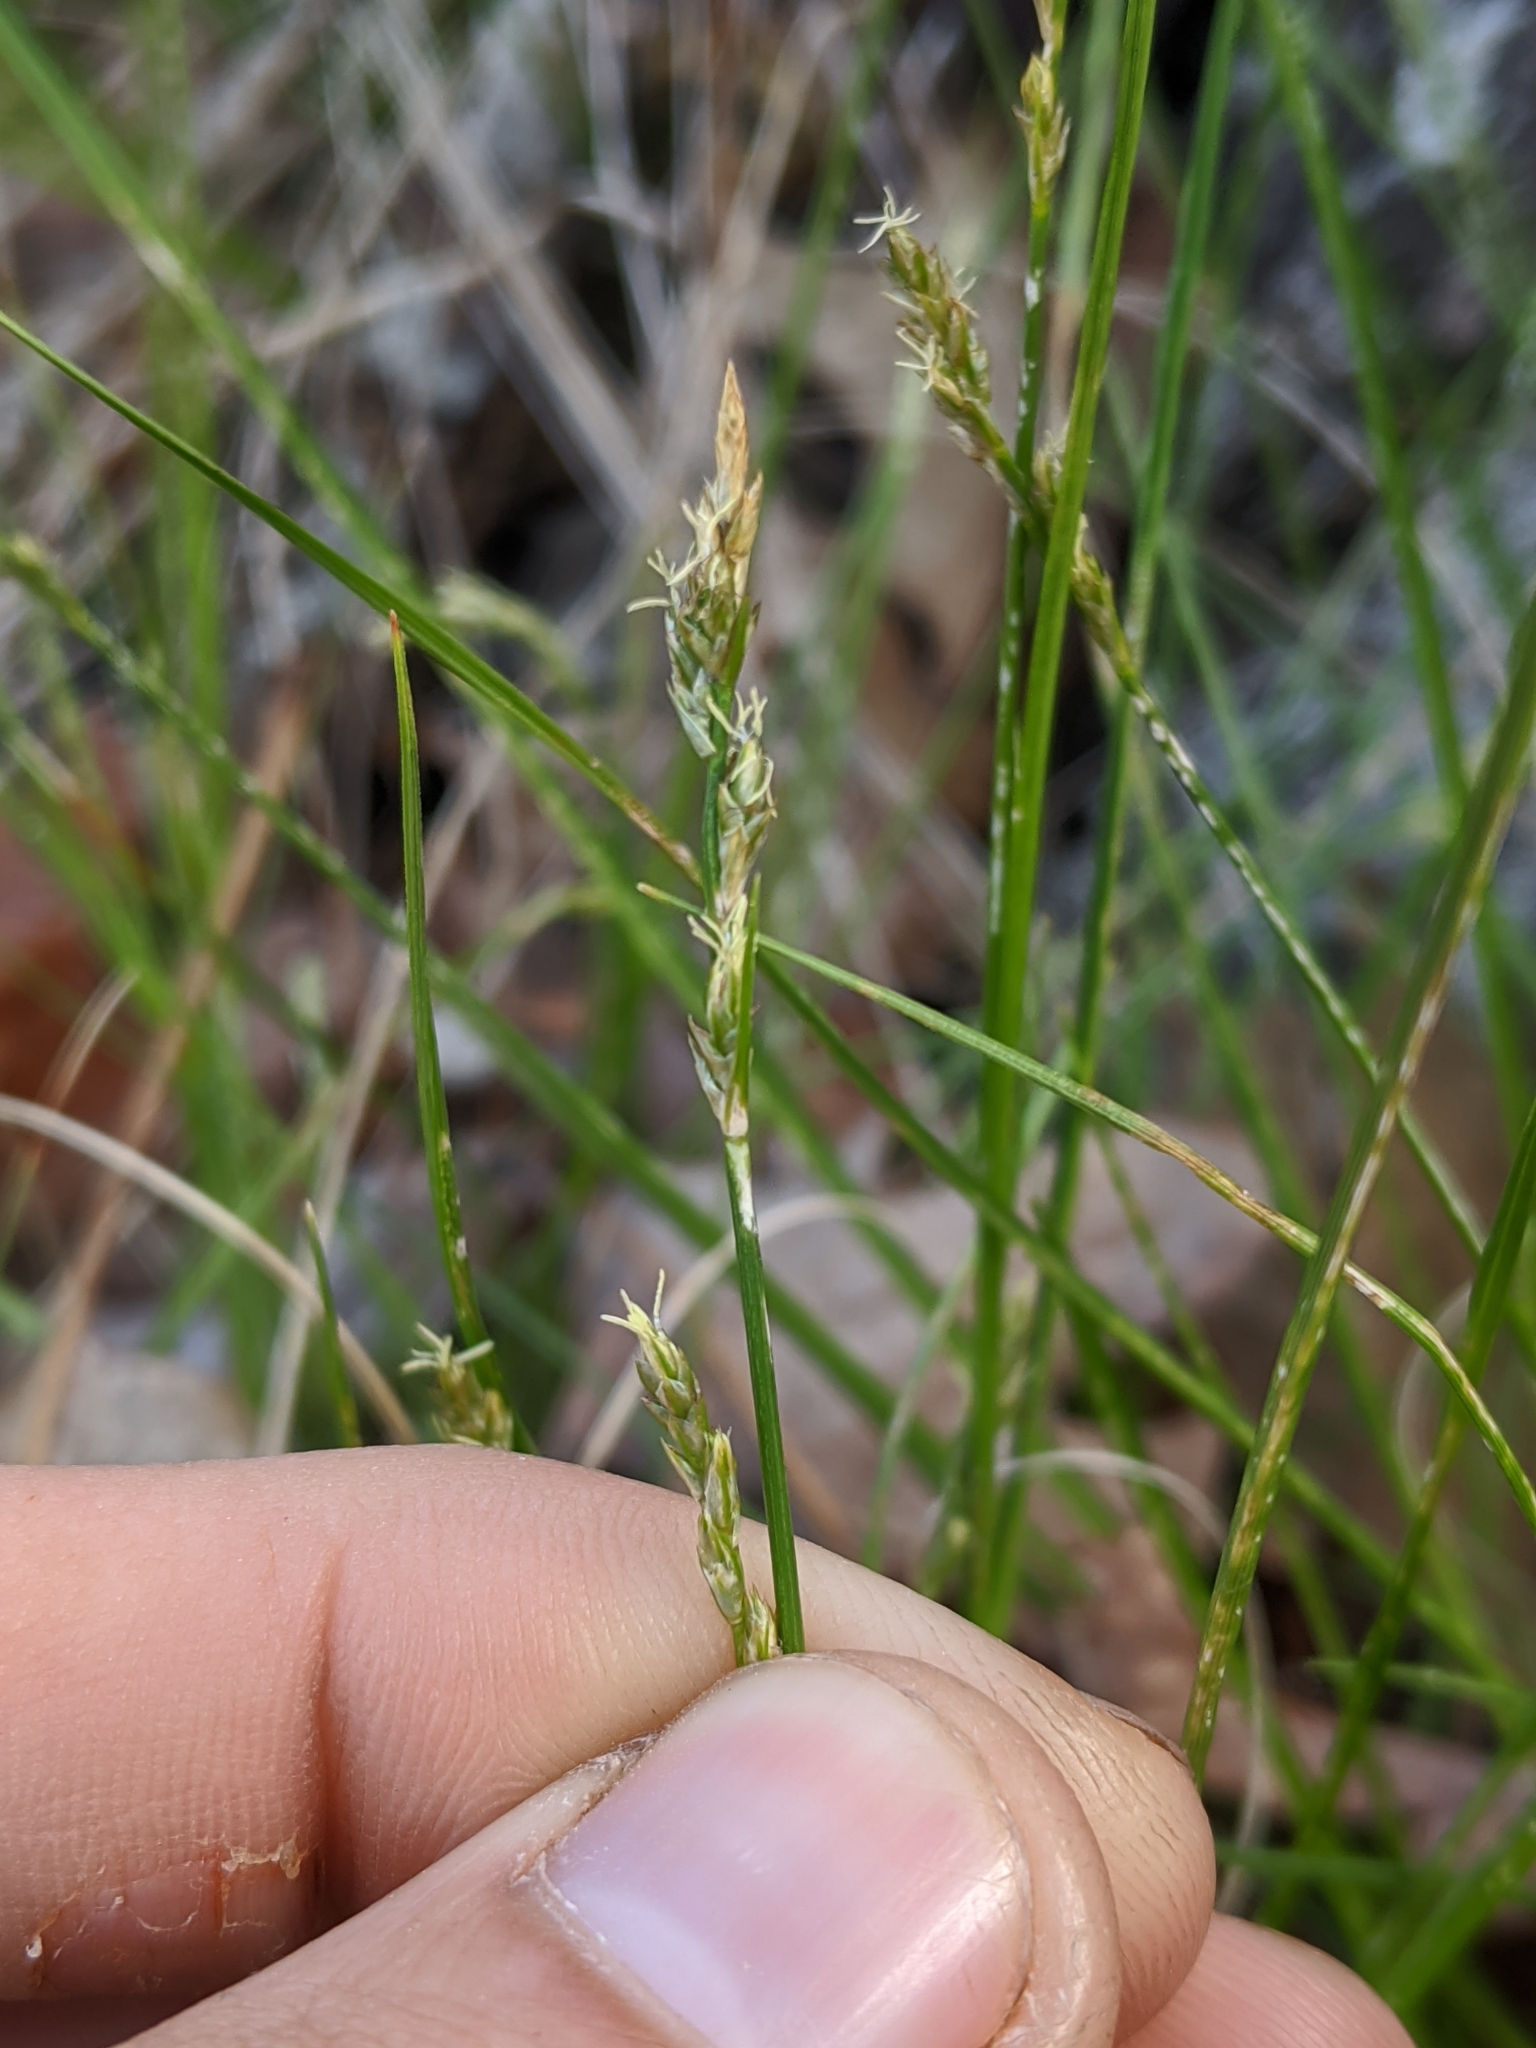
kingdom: Plantae
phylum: Tracheophyta
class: Liliopsida
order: Poales
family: Cyperaceae
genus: Carex
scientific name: Carex albicans
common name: Bellow-beaked sedge
